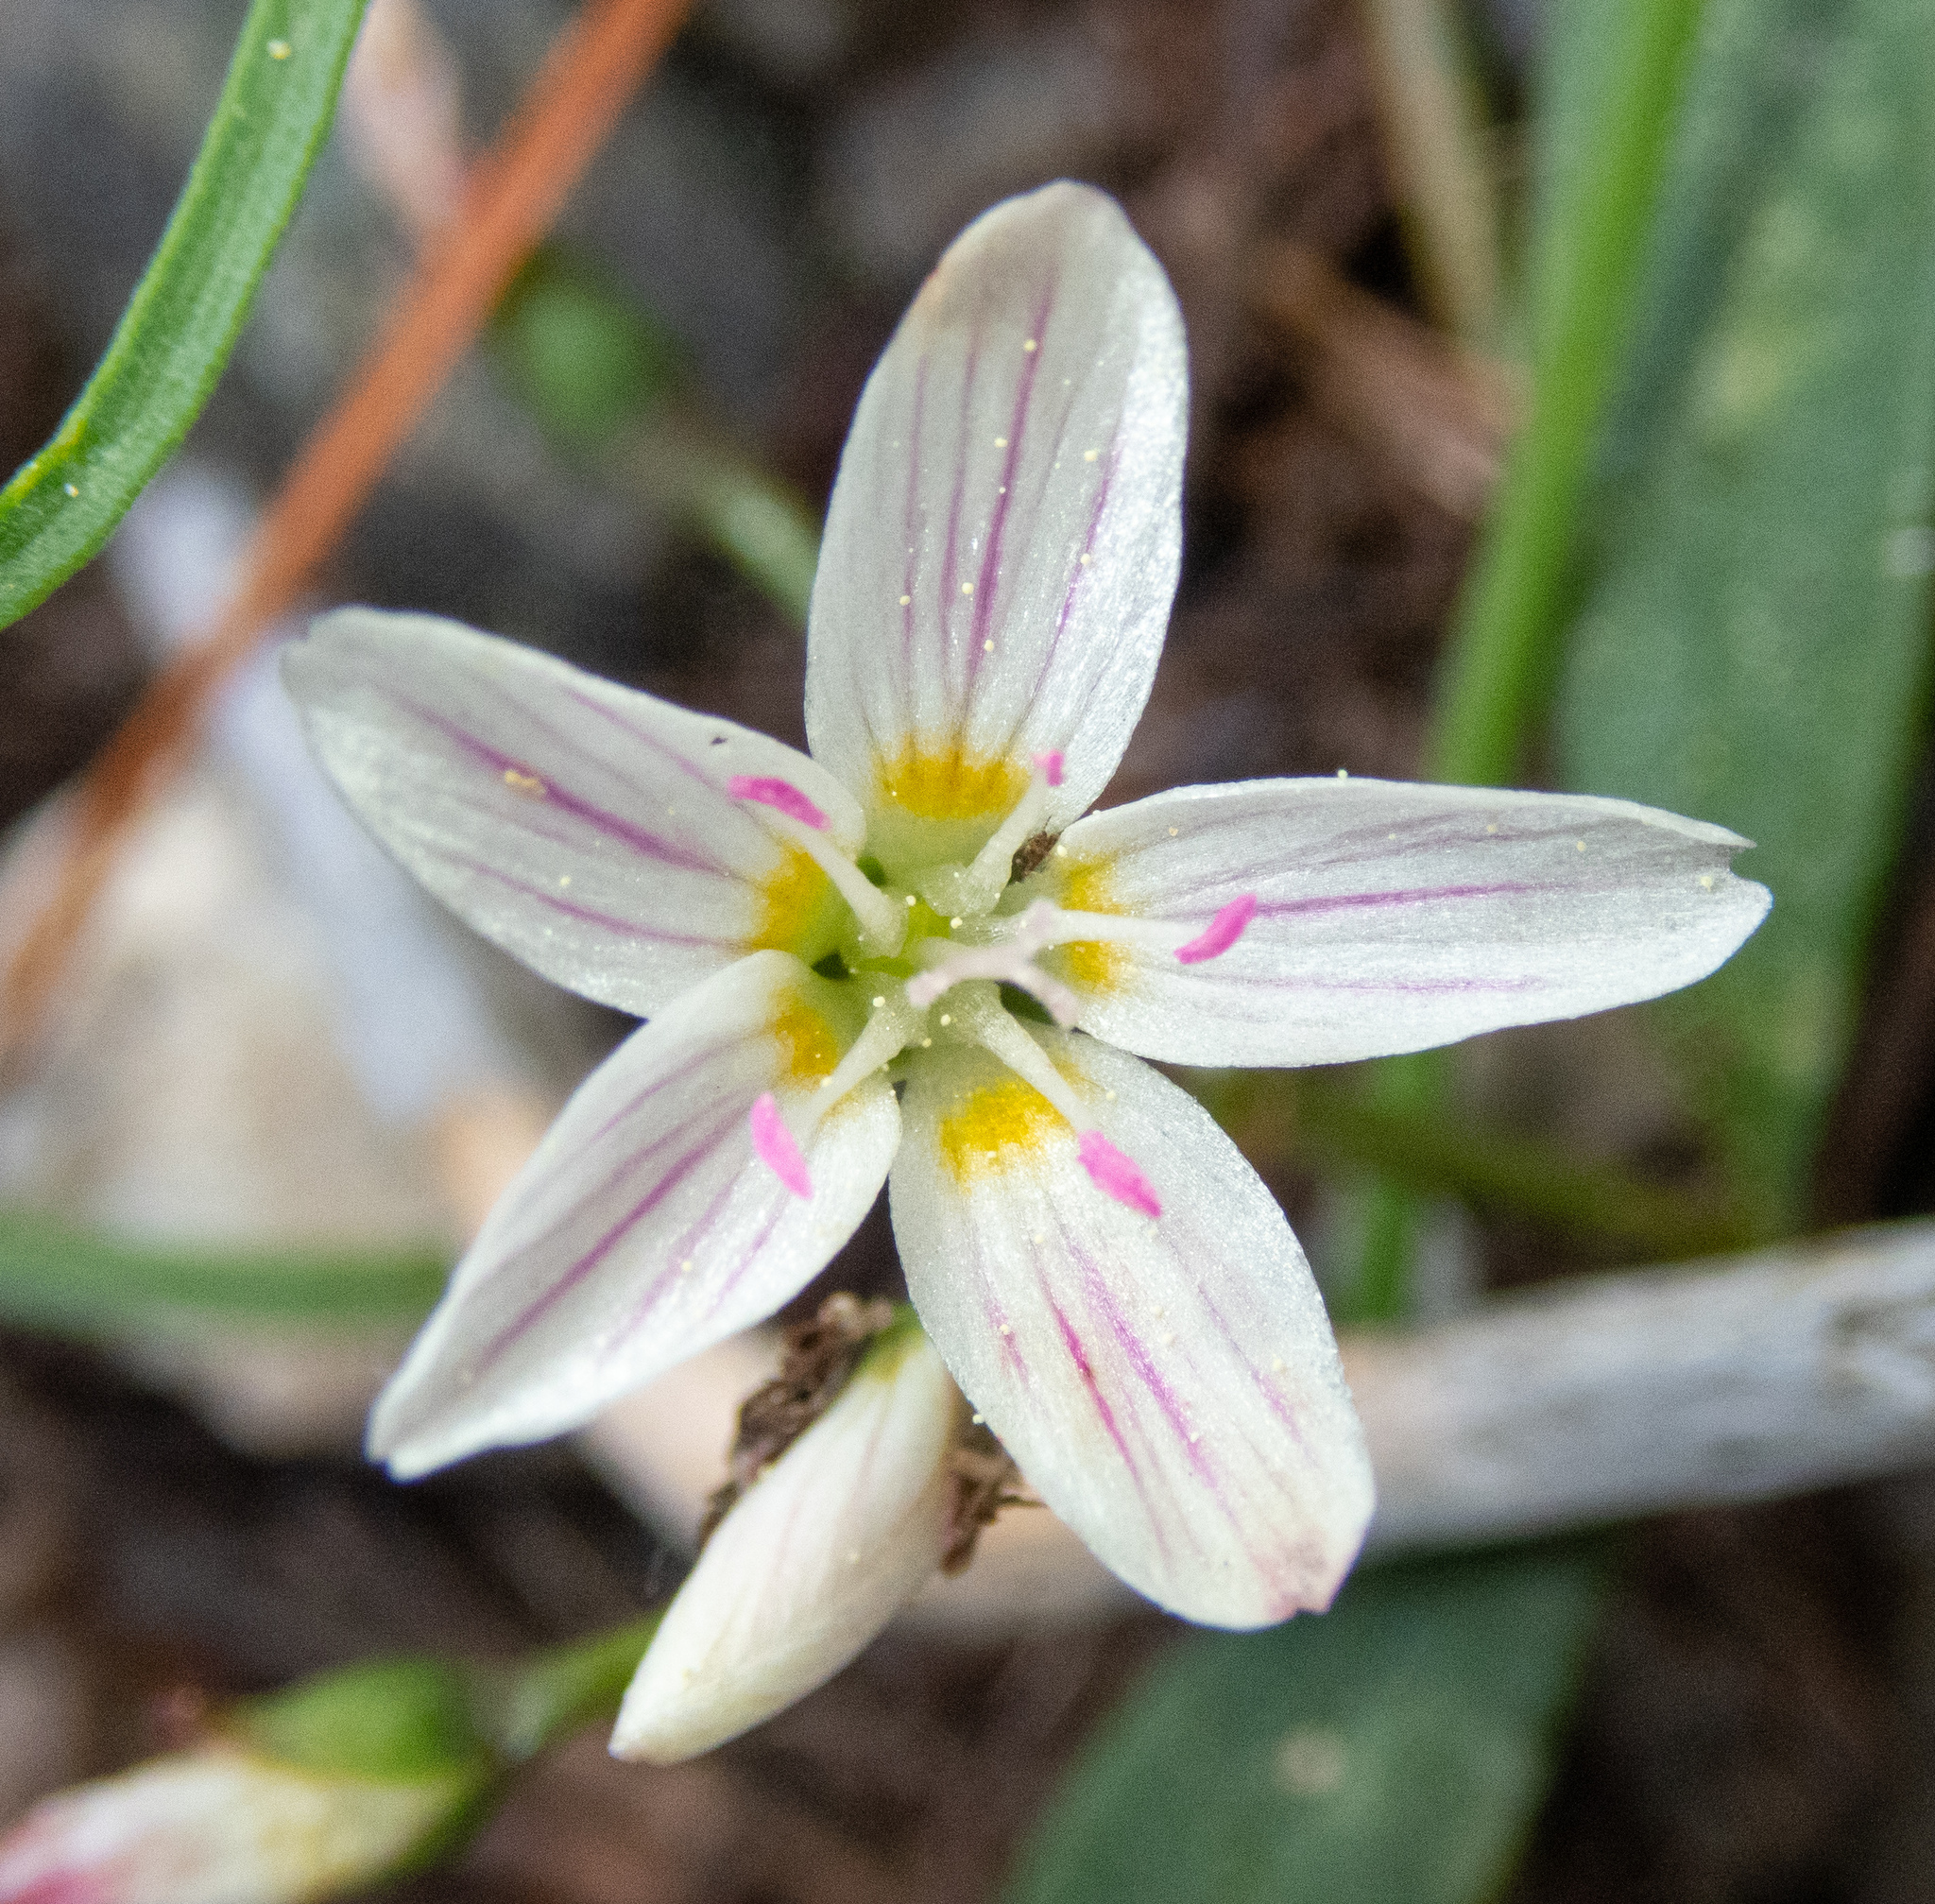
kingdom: Plantae
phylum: Tracheophyta
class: Magnoliopsida
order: Caryophyllales
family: Montiaceae
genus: Claytonia
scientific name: Claytonia lanceolata
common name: Western spring-beauty
